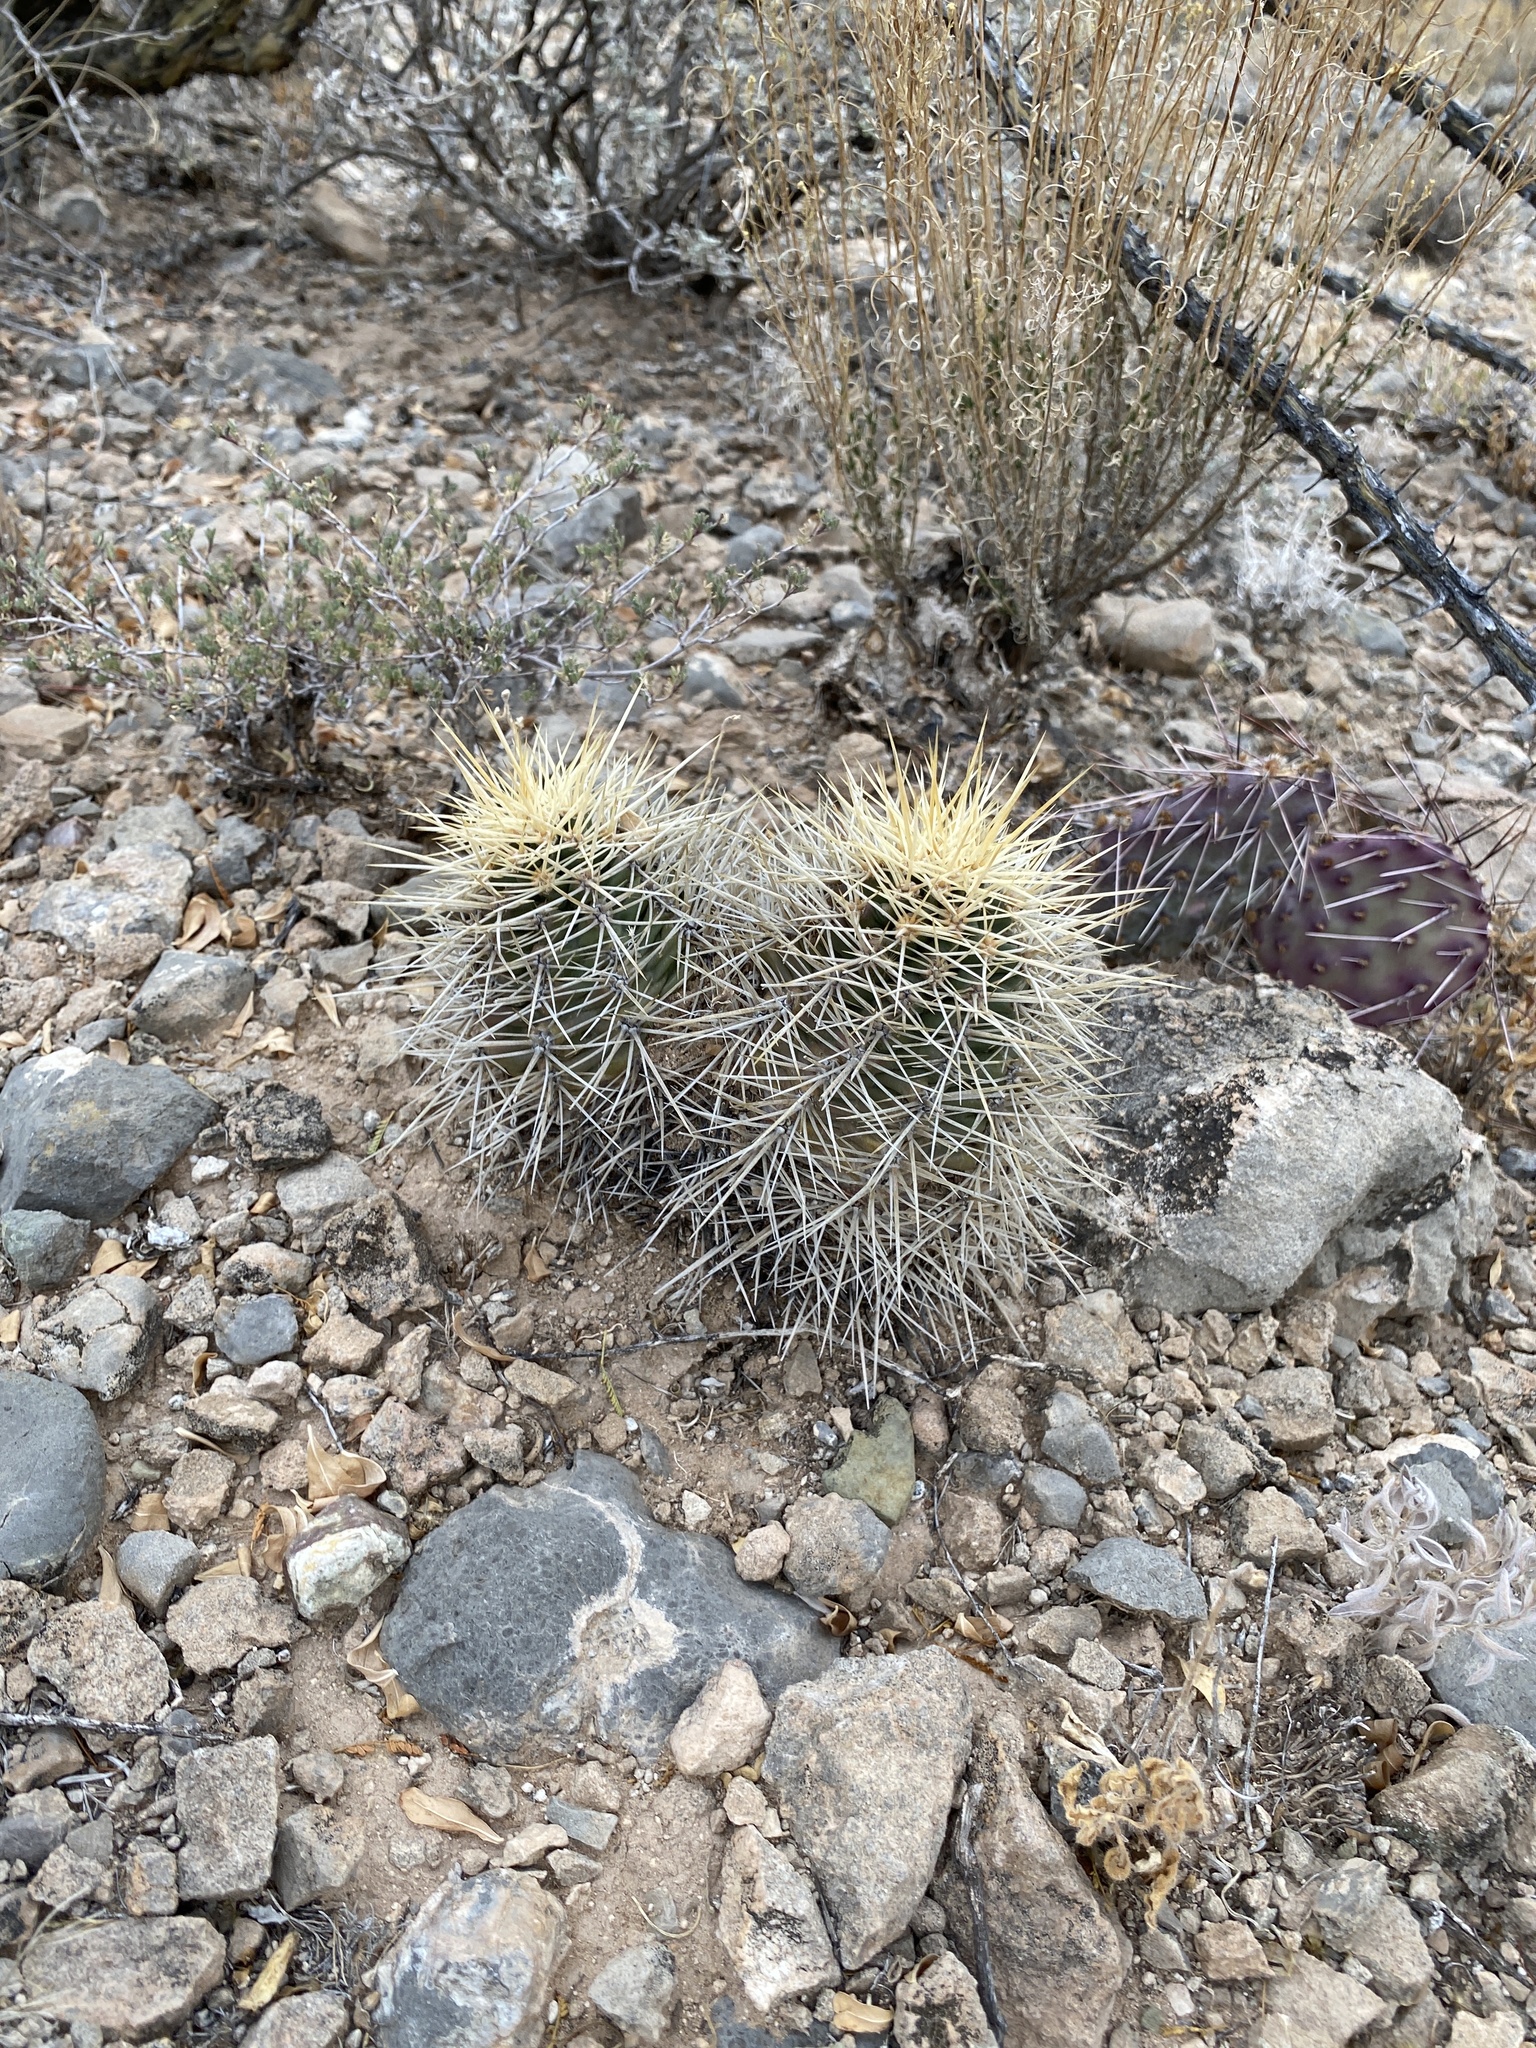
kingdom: Plantae
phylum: Tracheophyta
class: Magnoliopsida
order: Caryophyllales
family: Cactaceae
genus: Echinocereus
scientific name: Echinocereus coccineus
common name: Scarlet hedgehog cactus
